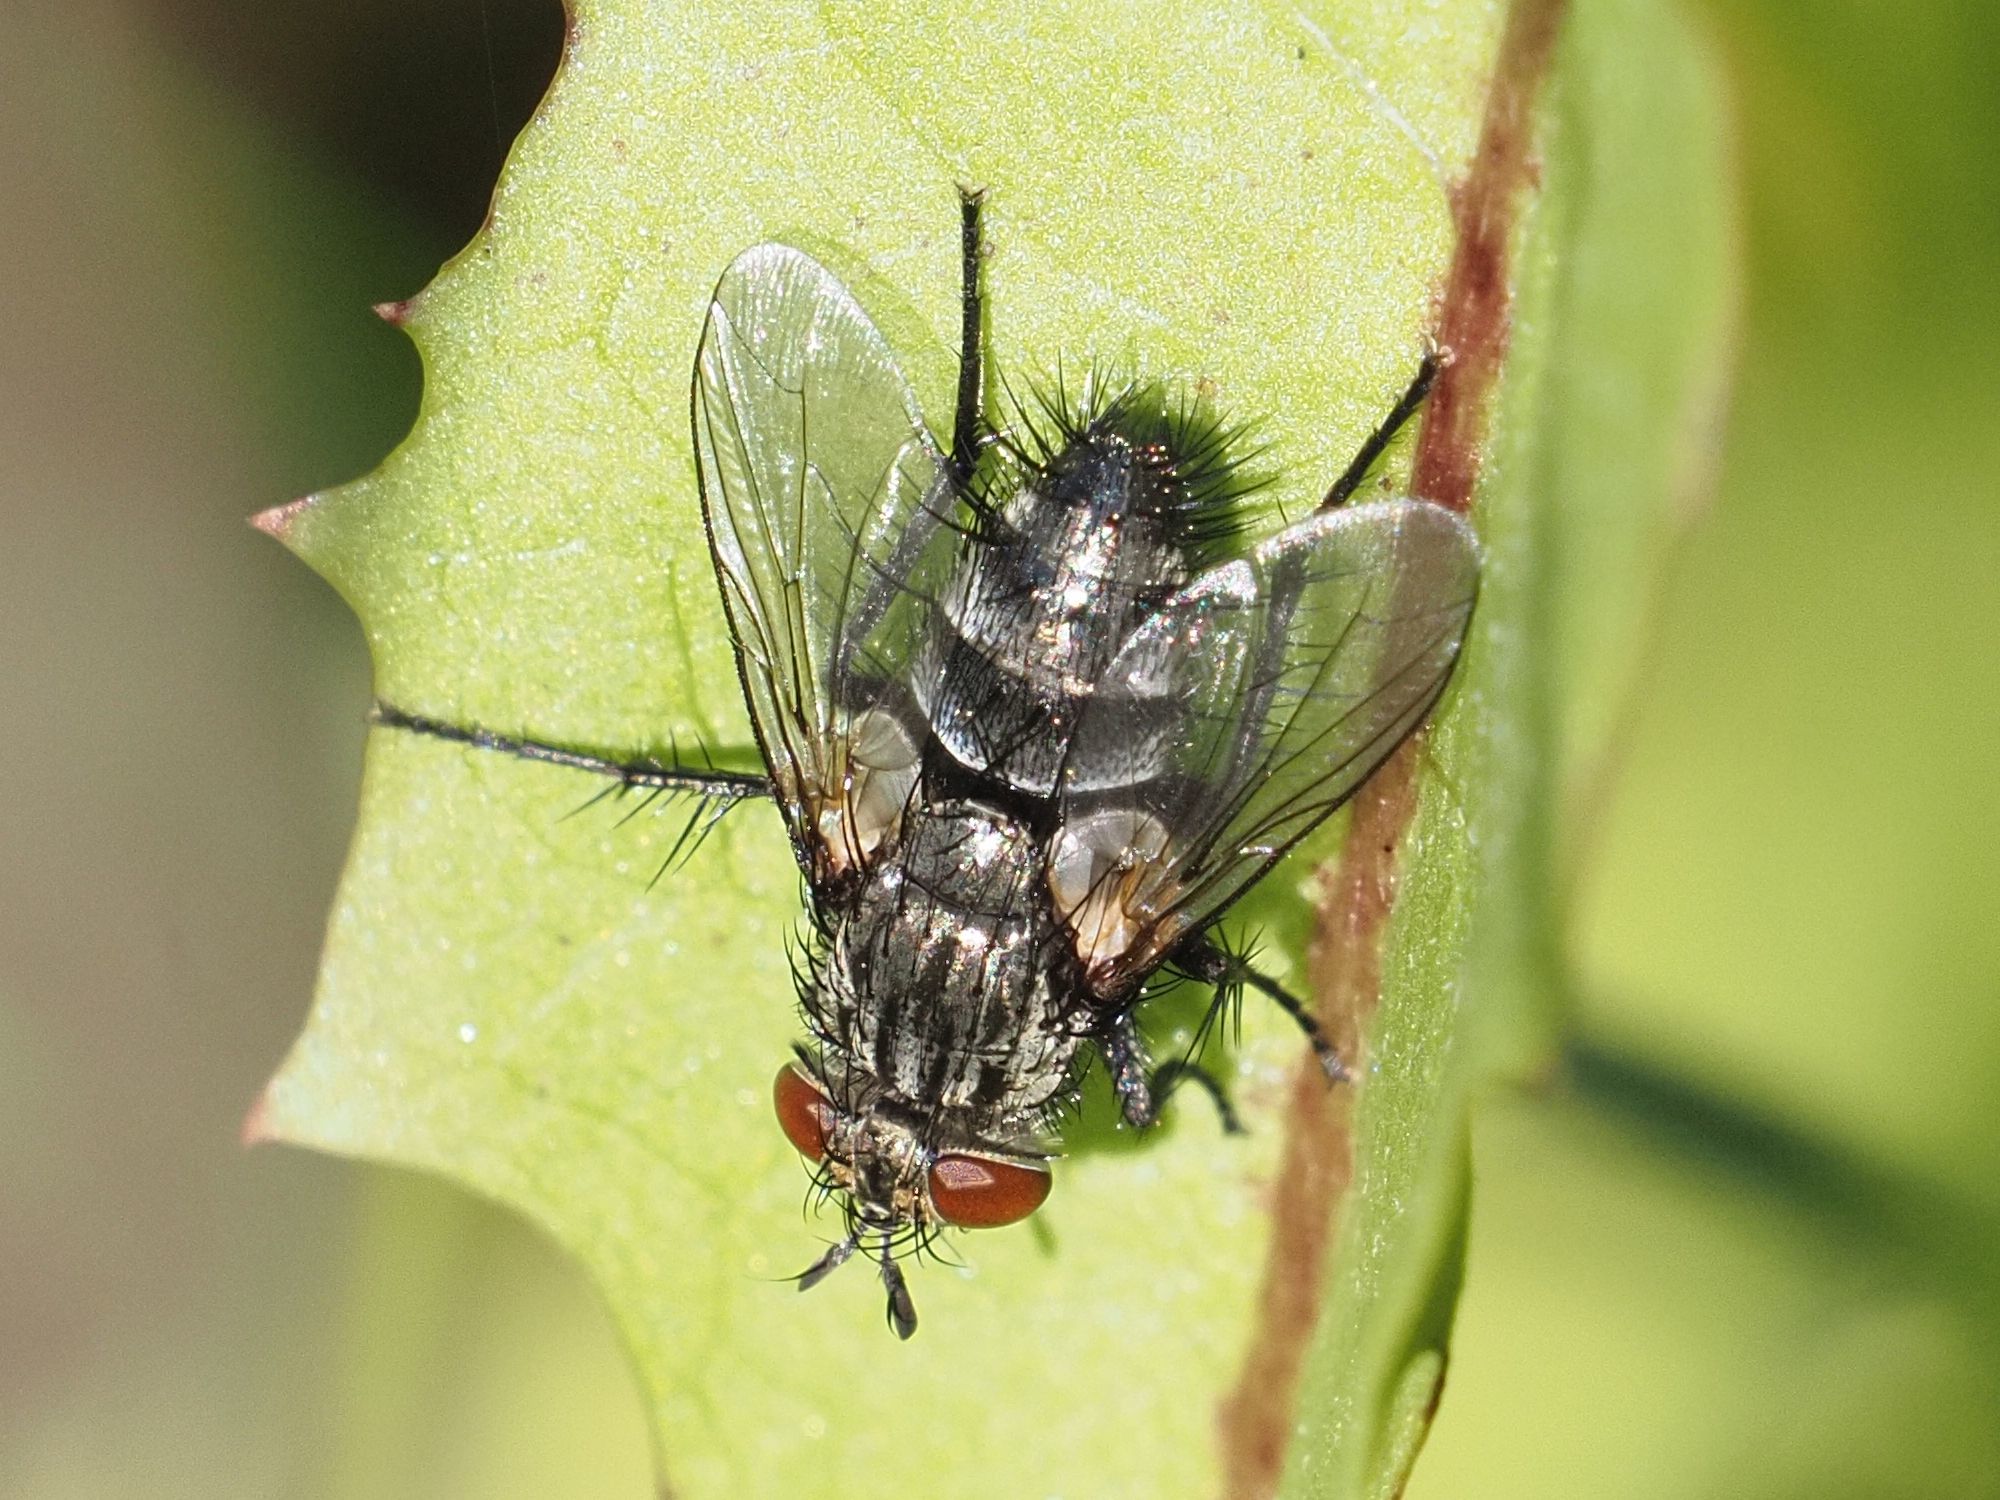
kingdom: Animalia
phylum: Arthropoda
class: Insecta
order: Diptera
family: Tachinidae
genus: Voria
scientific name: Voria ruralis
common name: Parasitic fly
